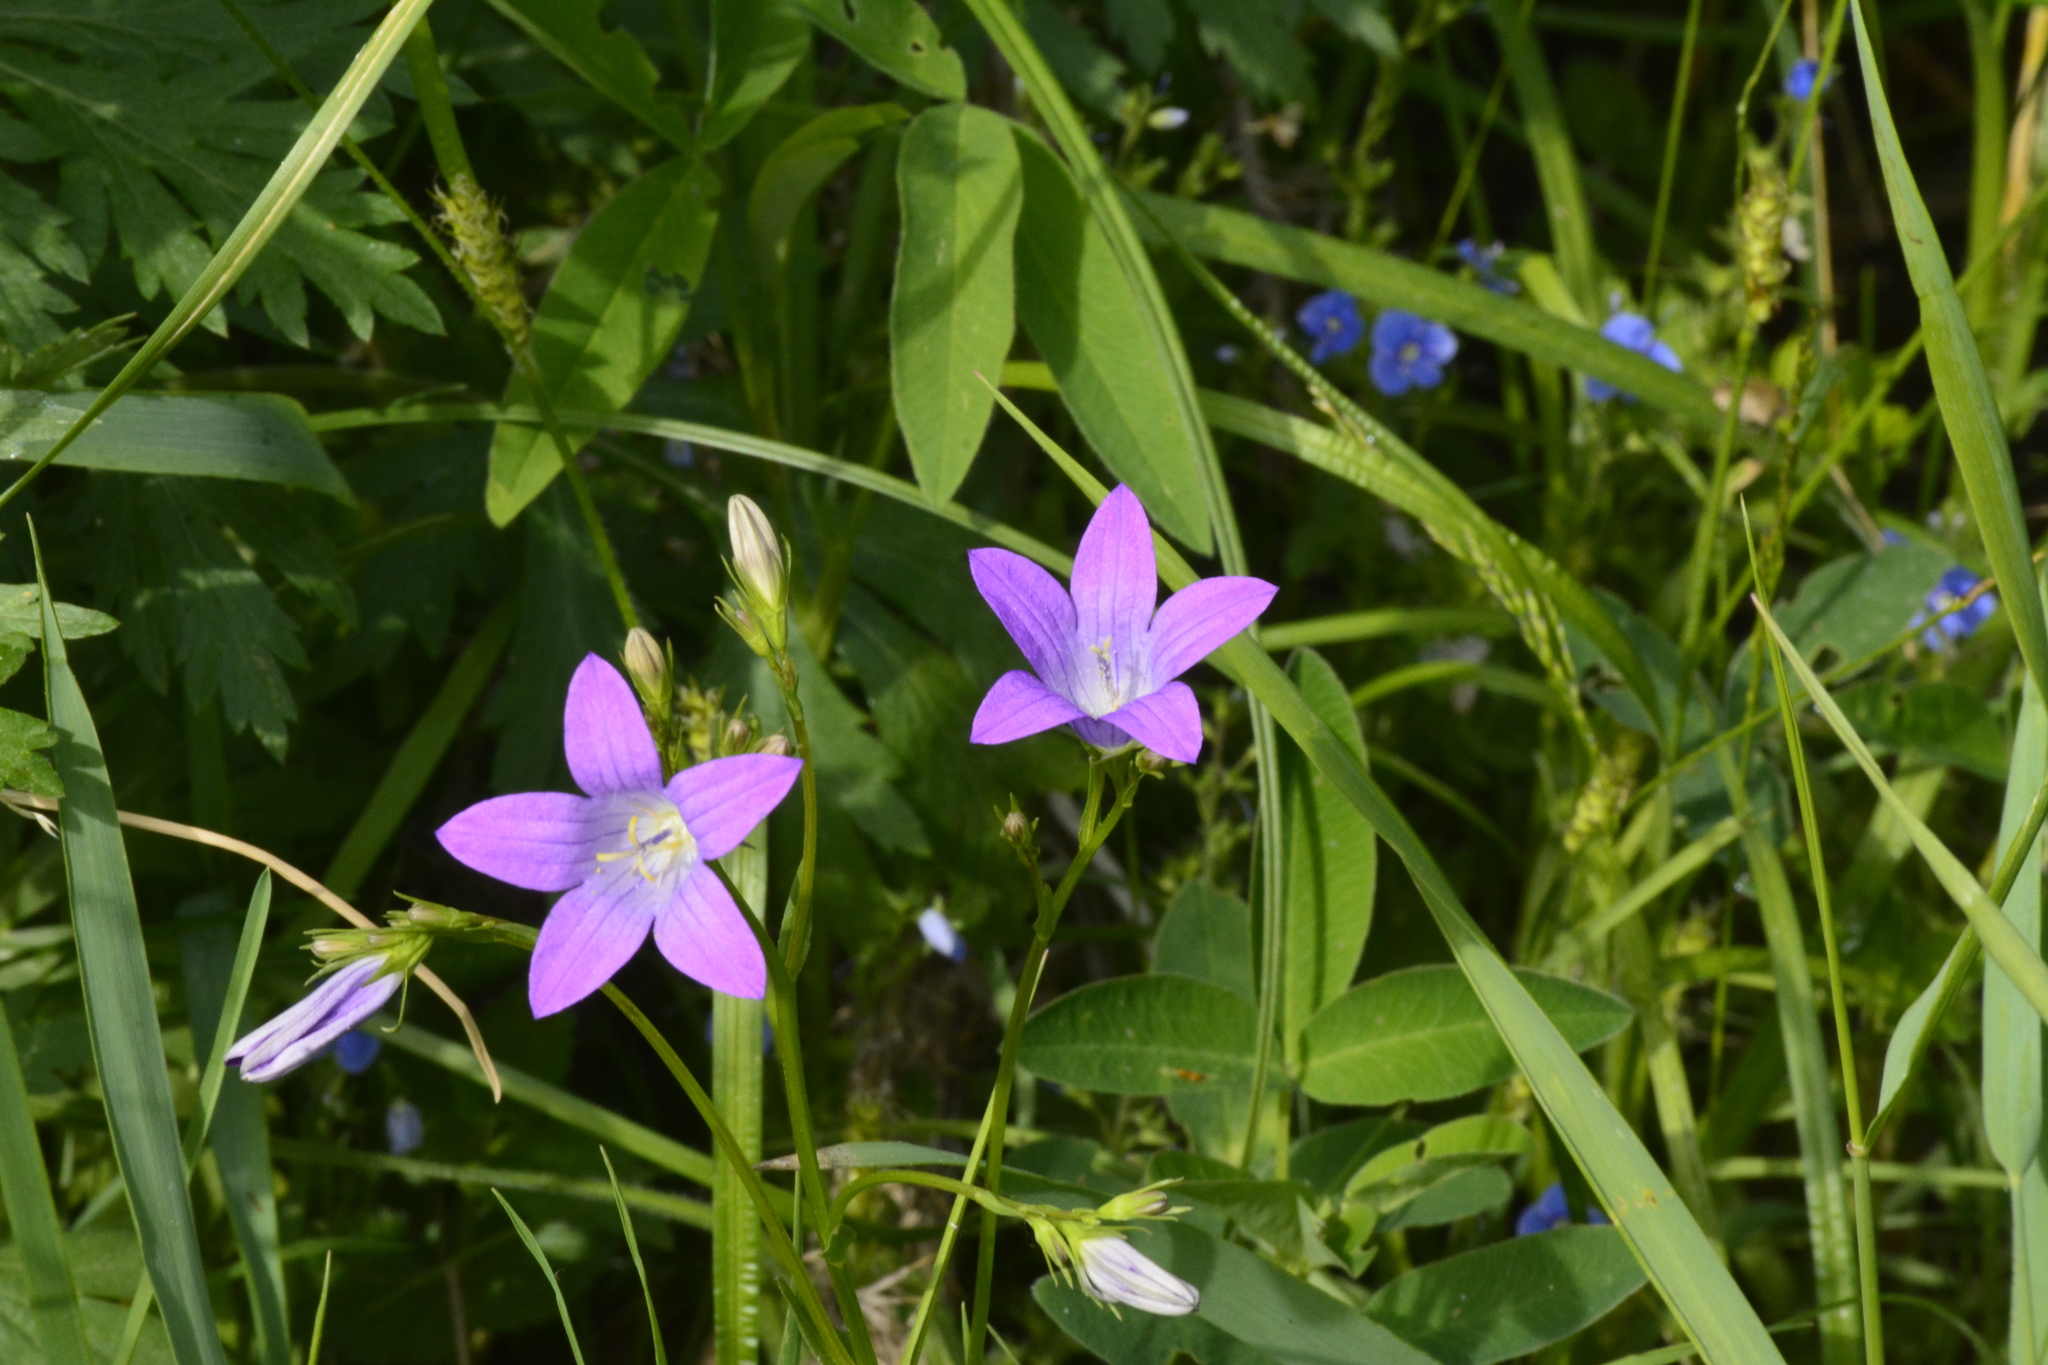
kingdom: Plantae
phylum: Tracheophyta
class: Magnoliopsida
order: Asterales
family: Campanulaceae
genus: Campanula
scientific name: Campanula patula
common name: Spreading bellflower
